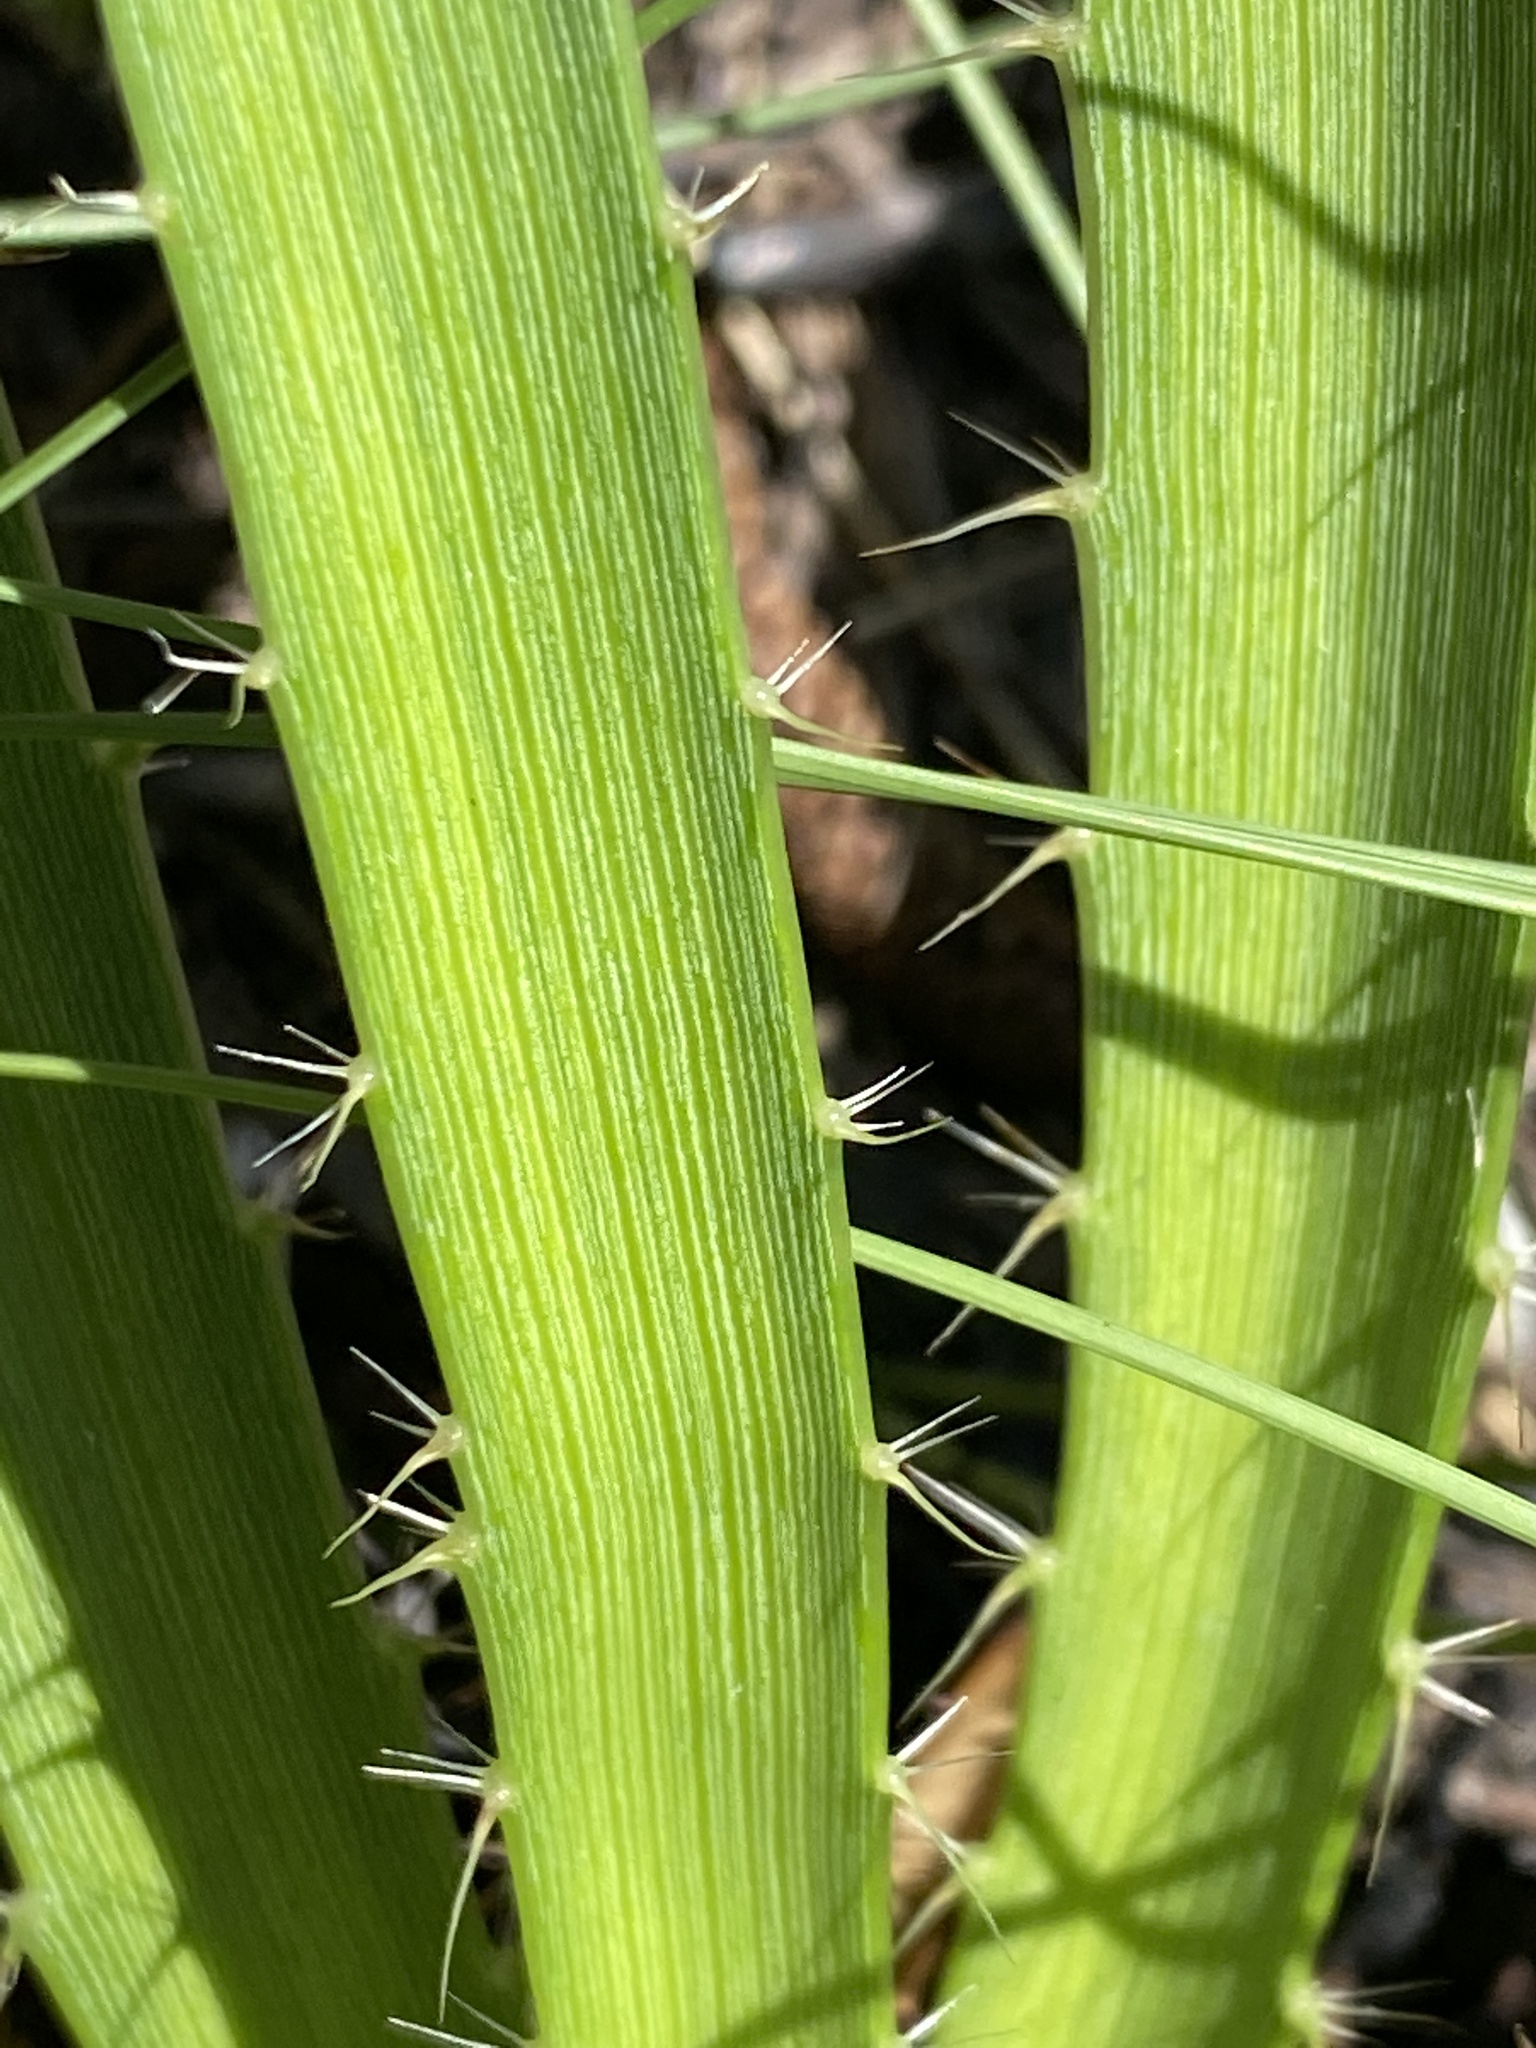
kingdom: Plantae
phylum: Tracheophyta
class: Magnoliopsida
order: Apiales
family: Apiaceae
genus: Eryngium
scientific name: Eryngium yuccifolium
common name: Button eryngo
